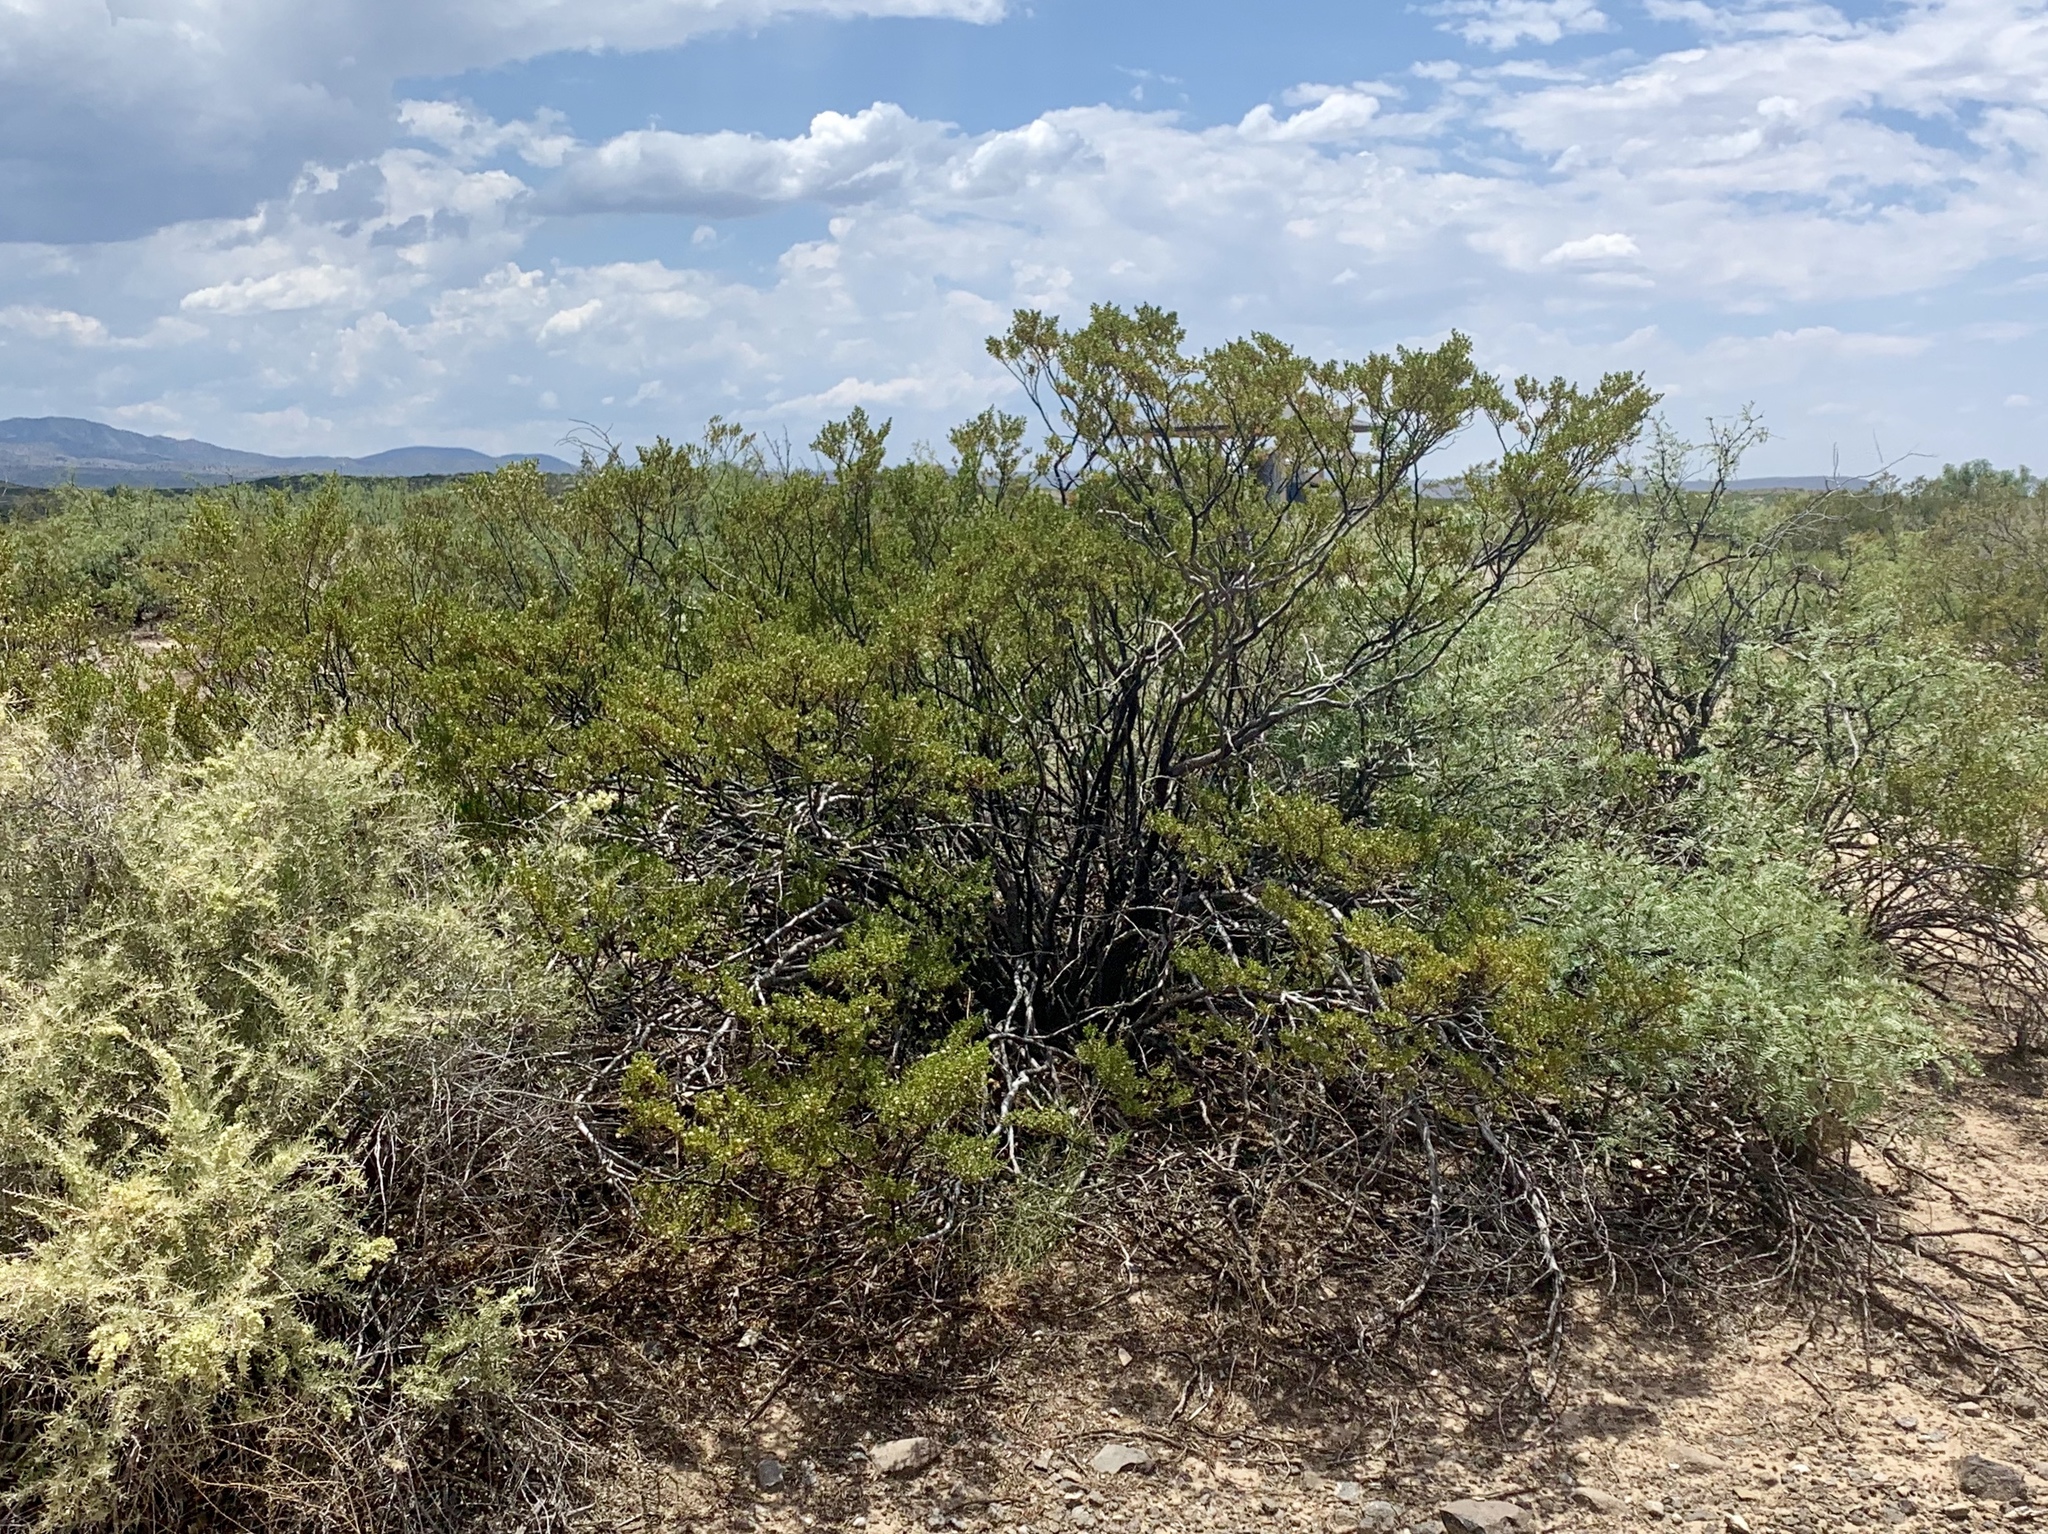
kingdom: Plantae
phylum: Tracheophyta
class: Magnoliopsida
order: Zygophyllales
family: Zygophyllaceae
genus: Larrea
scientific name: Larrea tridentata
